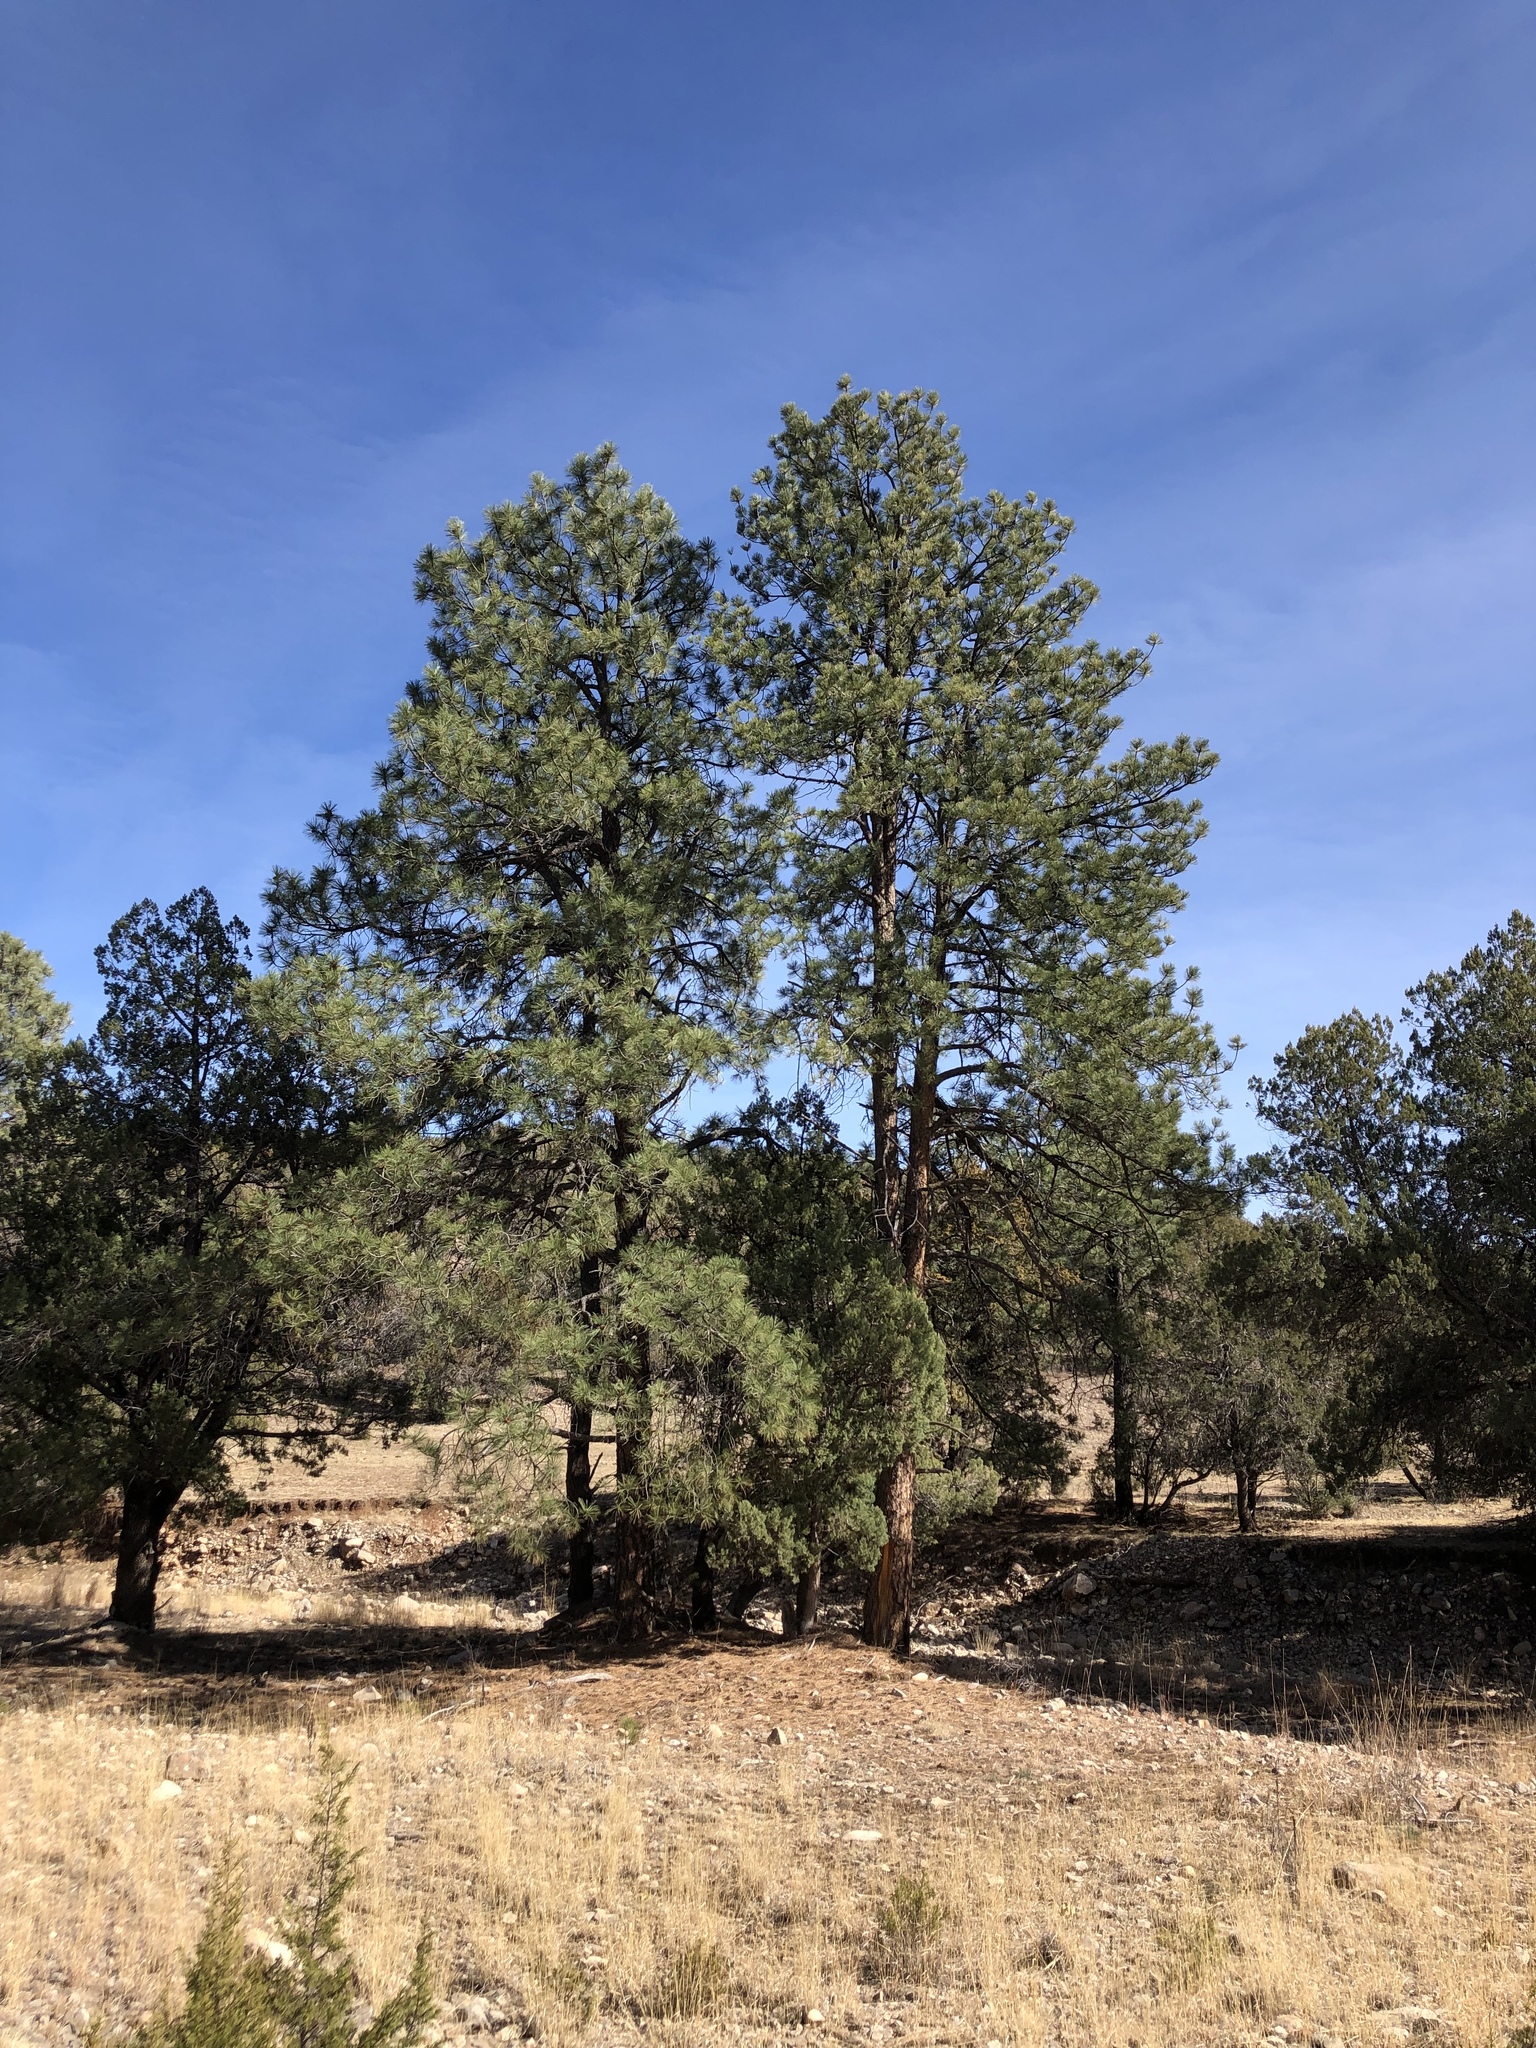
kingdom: Plantae
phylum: Tracheophyta
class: Pinopsida
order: Pinales
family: Pinaceae
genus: Pinus
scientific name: Pinus ponderosa
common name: Western yellow-pine
